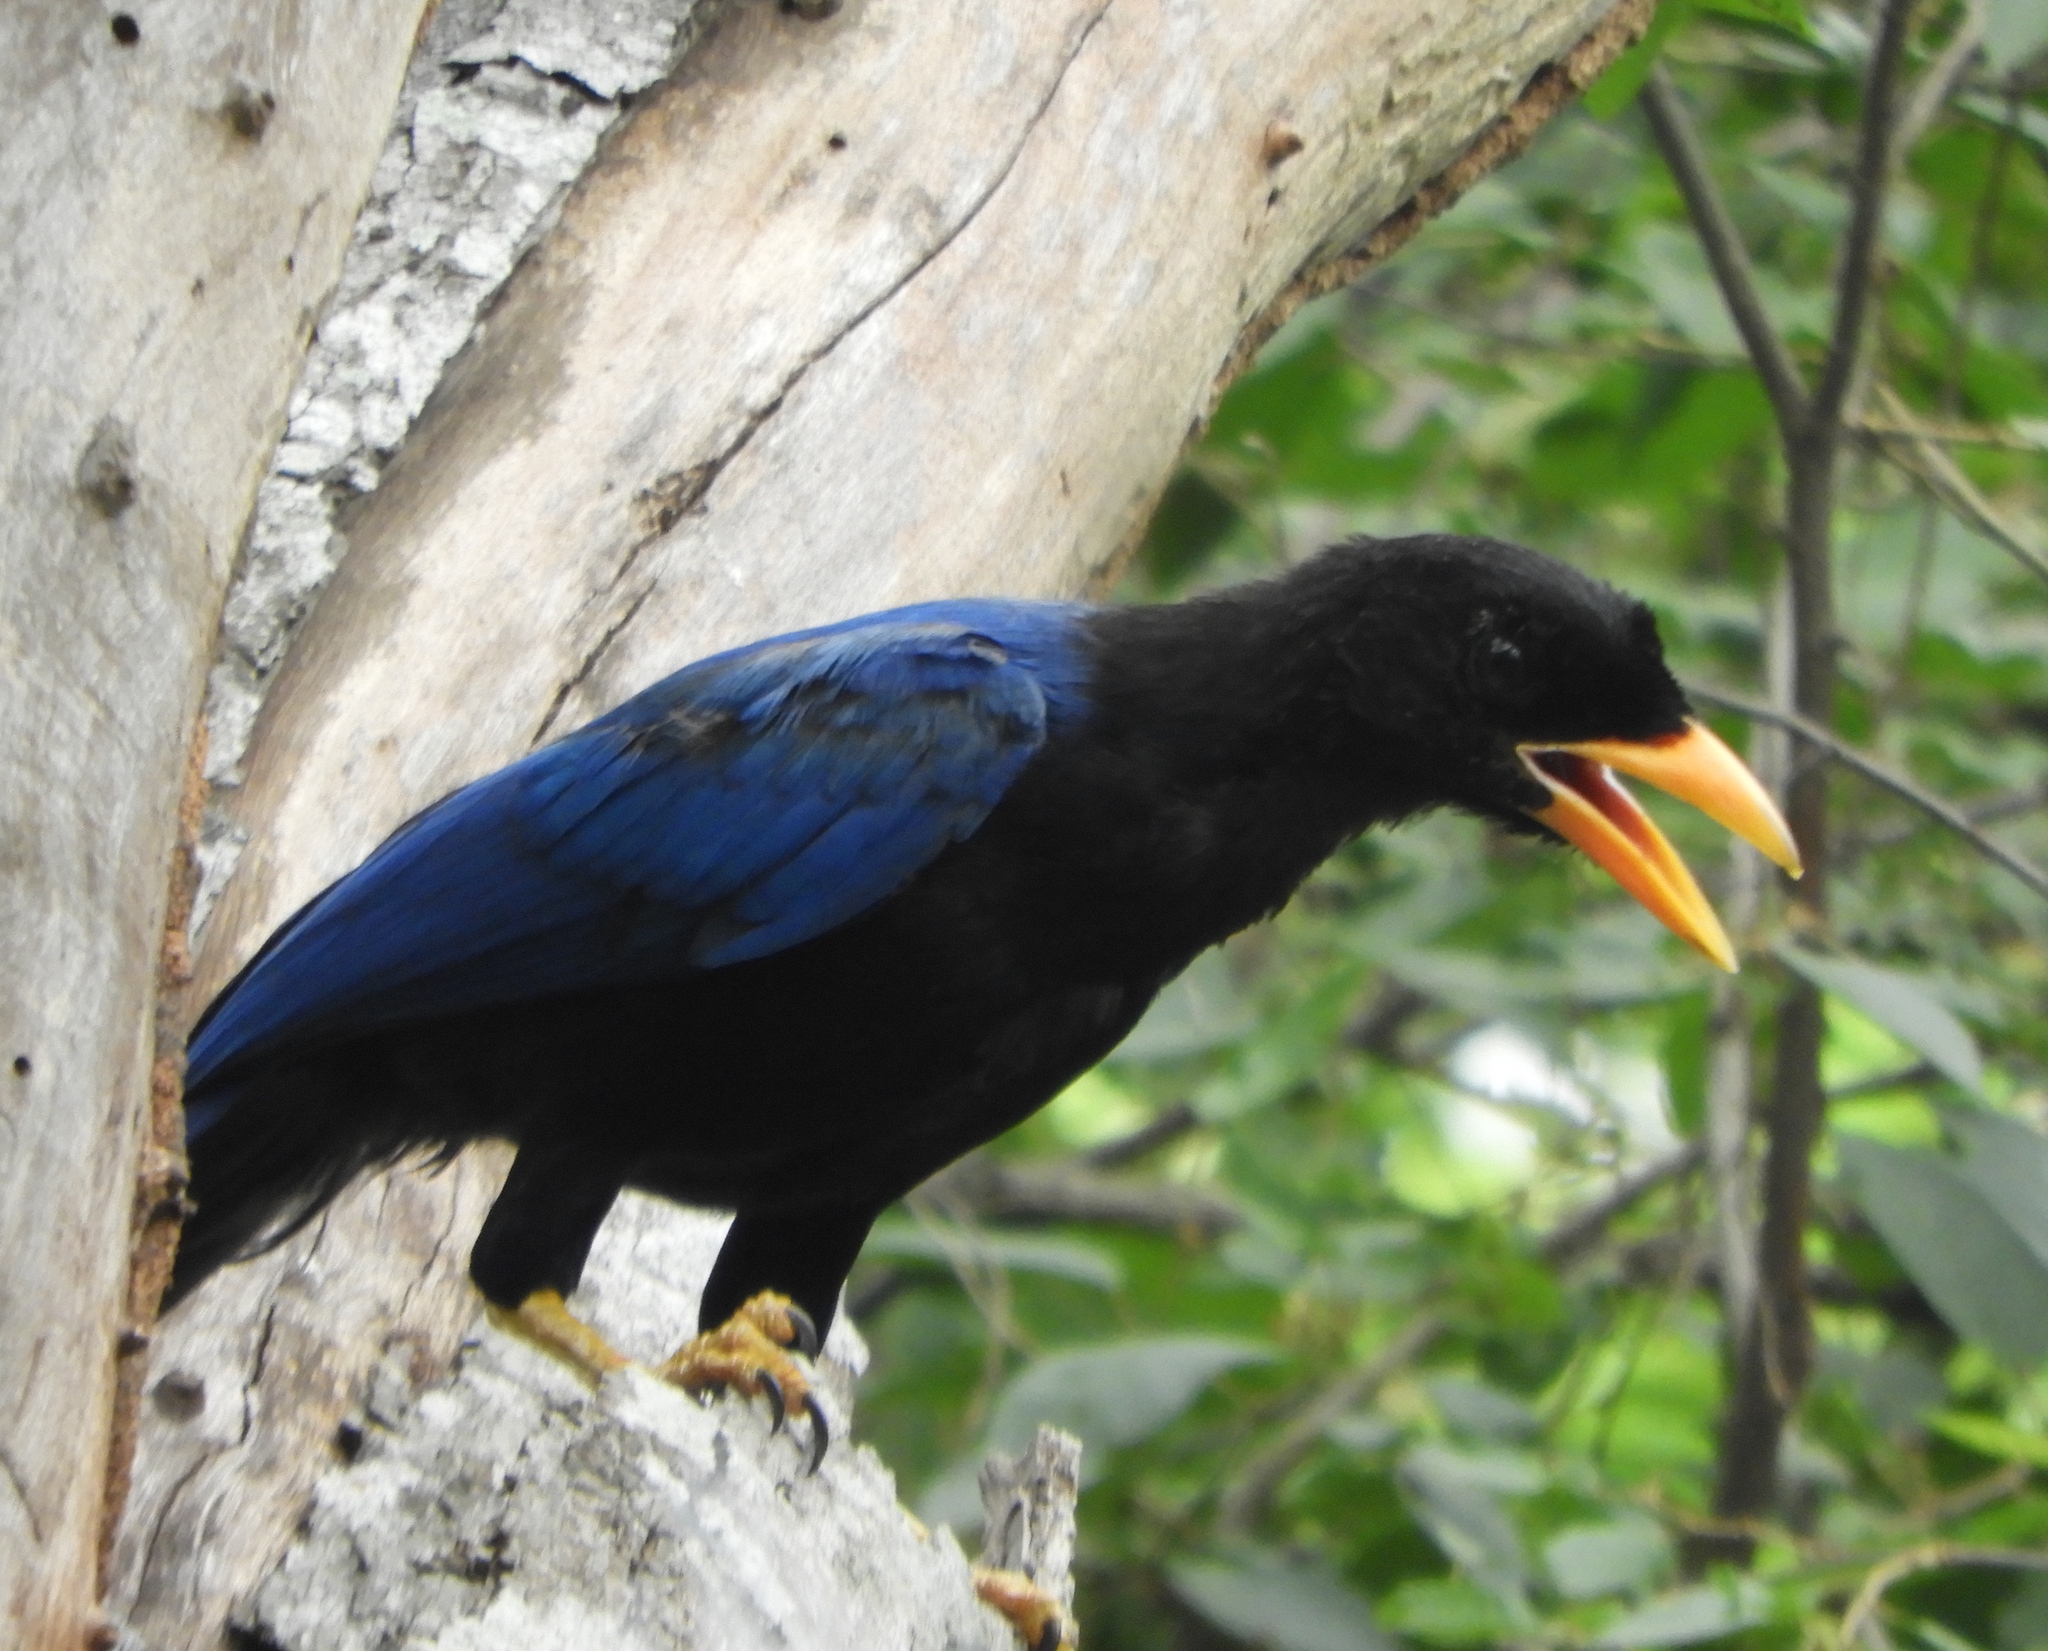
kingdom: Animalia
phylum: Chordata
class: Aves
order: Passeriformes
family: Corvidae
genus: Cyanocorax
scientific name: Cyanocorax beecheii
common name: Purplish-backed jay
